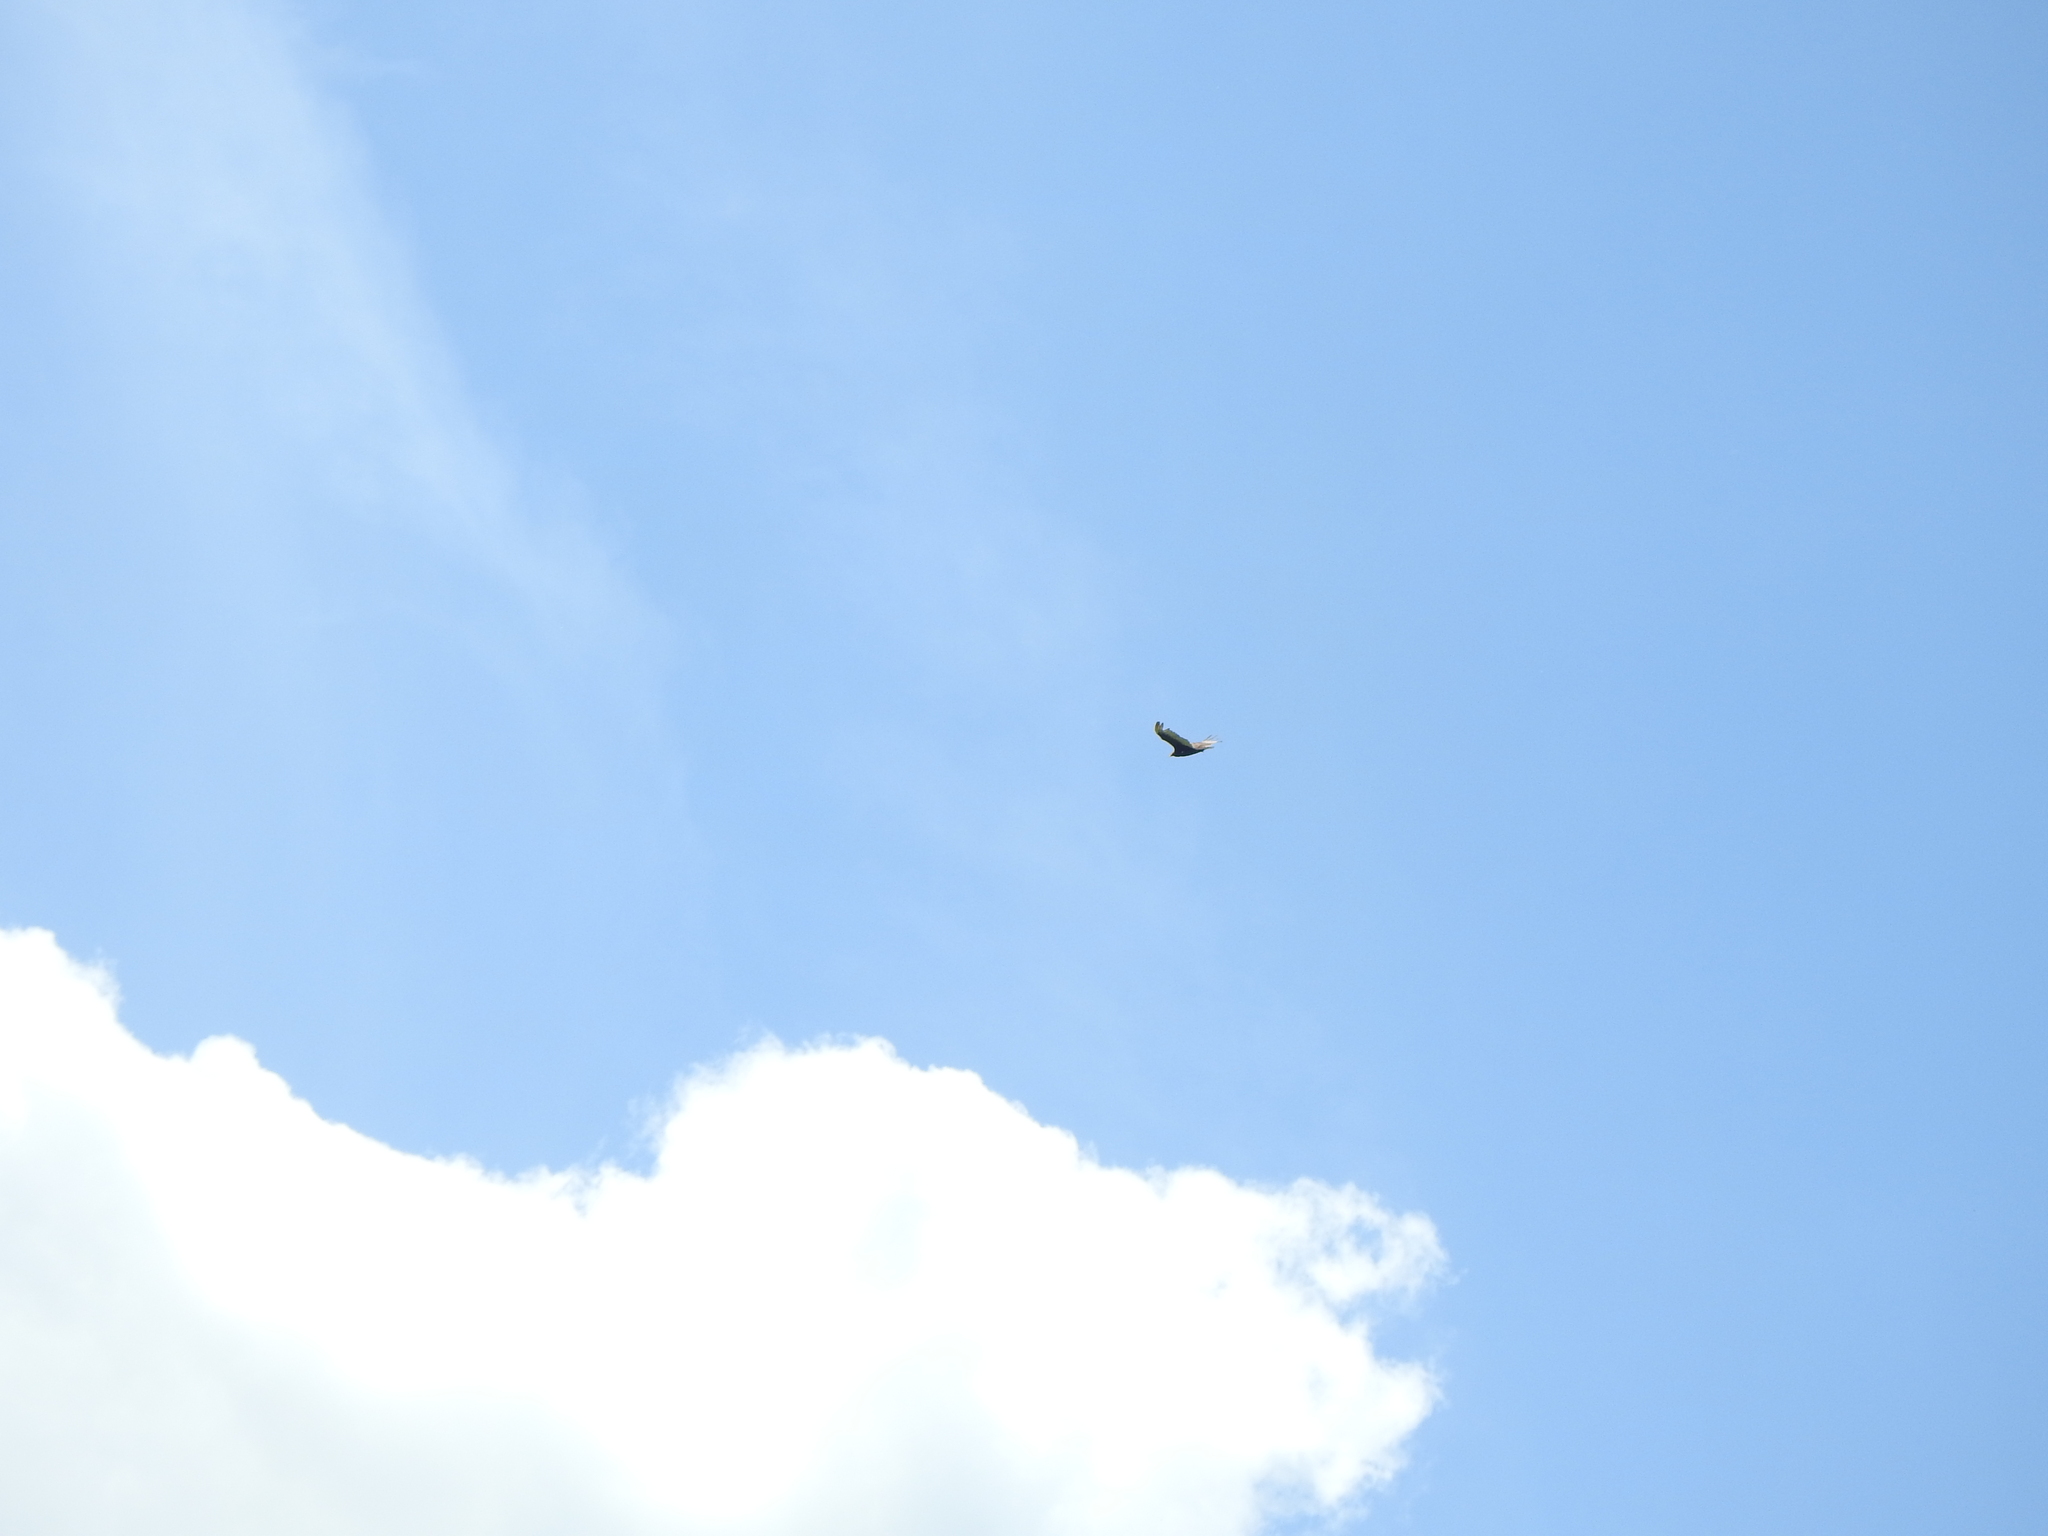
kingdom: Animalia
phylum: Chordata
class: Aves
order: Accipitriformes
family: Cathartidae
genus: Cathartes
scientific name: Cathartes aura
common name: Turkey vulture
